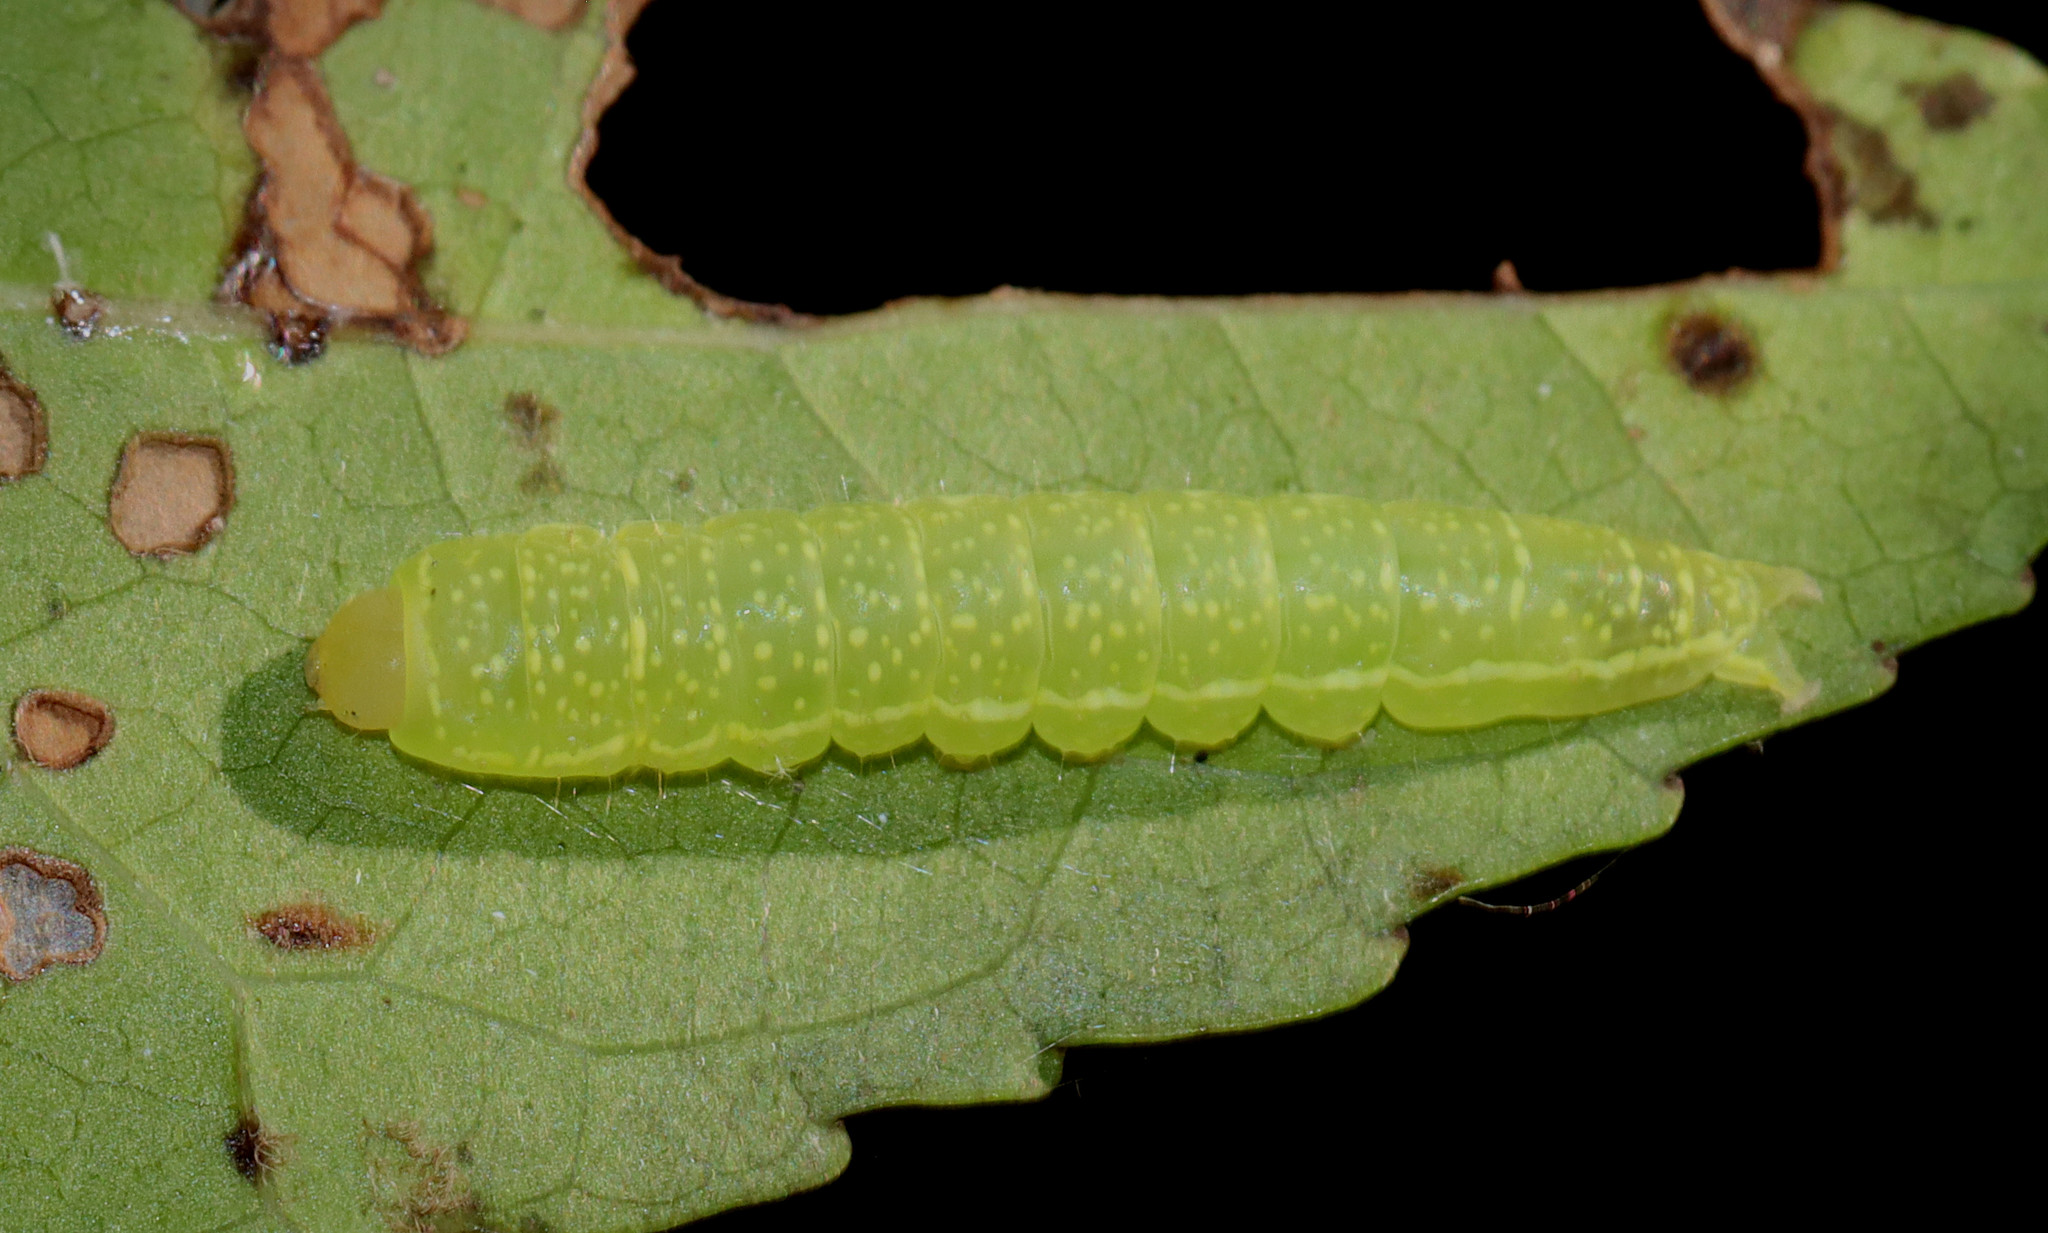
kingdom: Animalia
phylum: Arthropoda
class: Insecta
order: Lepidoptera
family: Euteliidae
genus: Paectes
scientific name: Paectes abrostoloides
